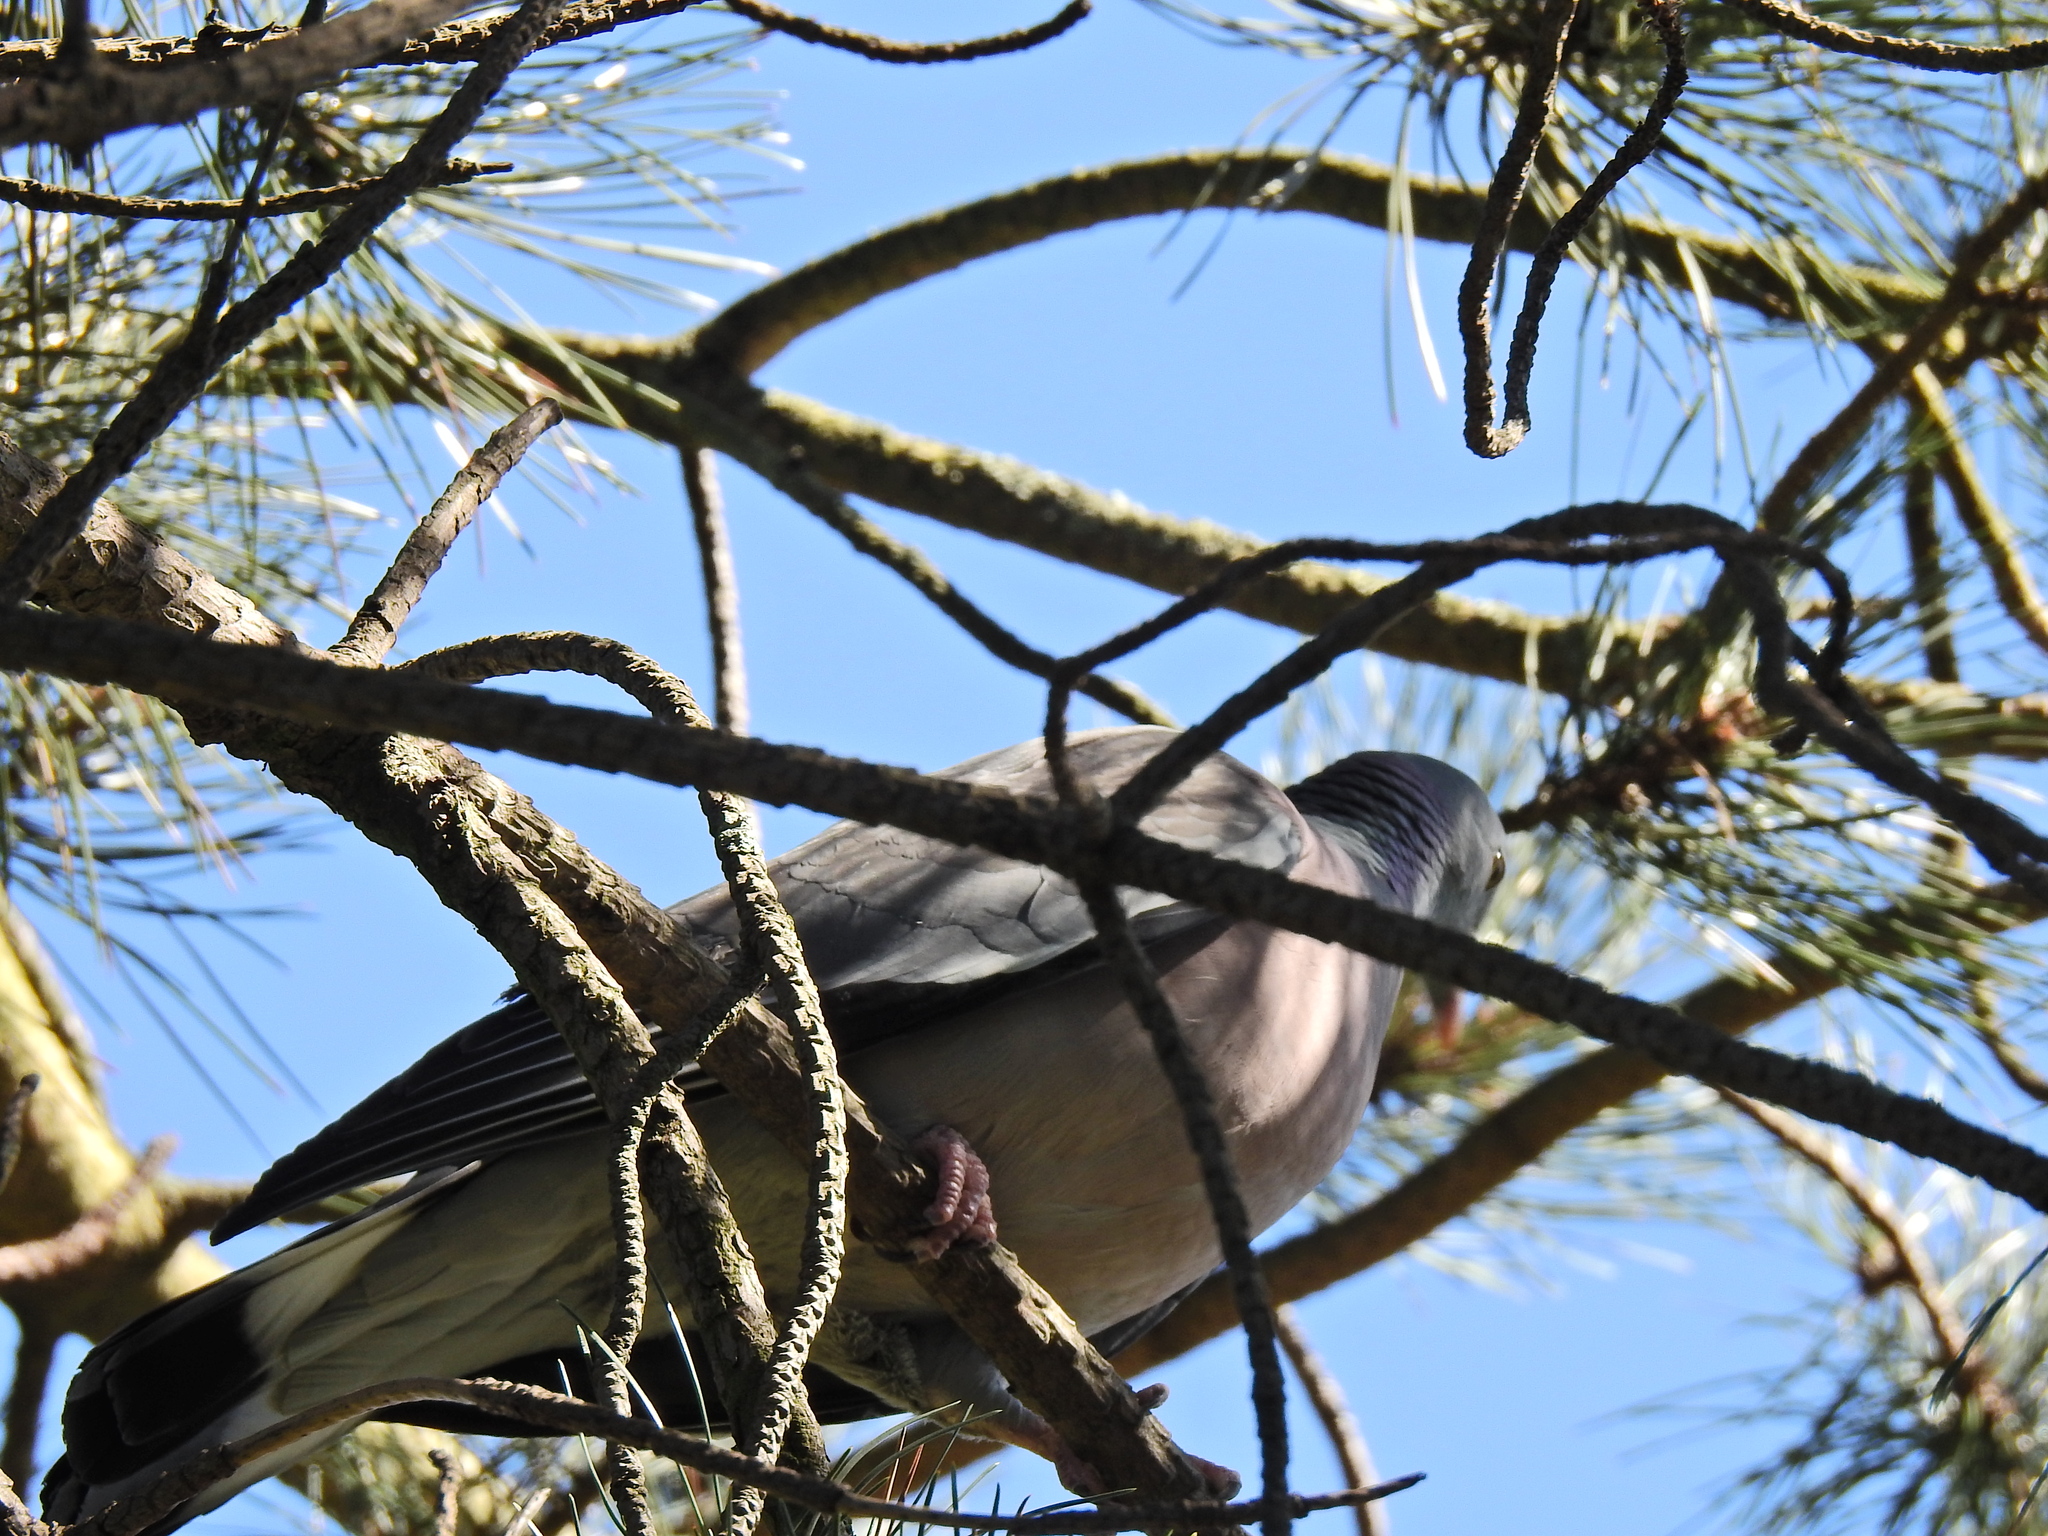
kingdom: Animalia
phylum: Chordata
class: Aves
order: Columbiformes
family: Columbidae
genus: Columba
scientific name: Columba palumbus
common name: Common wood pigeon
